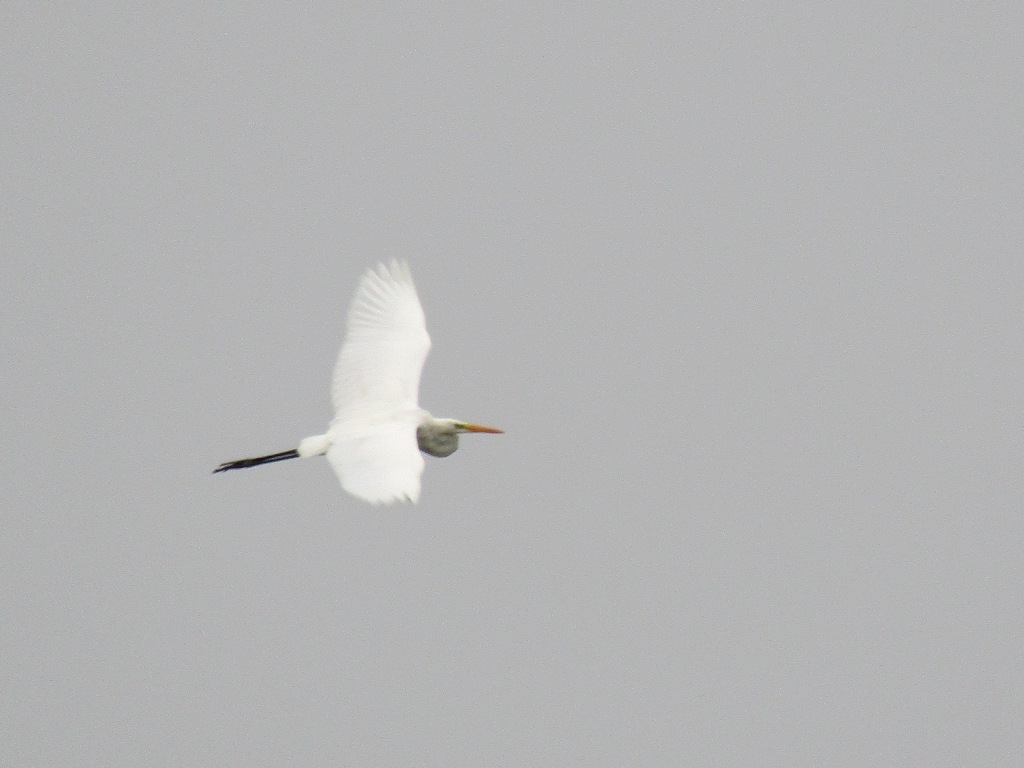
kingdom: Animalia
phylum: Chordata
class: Aves
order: Pelecaniformes
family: Ardeidae
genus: Ardea
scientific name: Ardea alba
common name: Great egret
